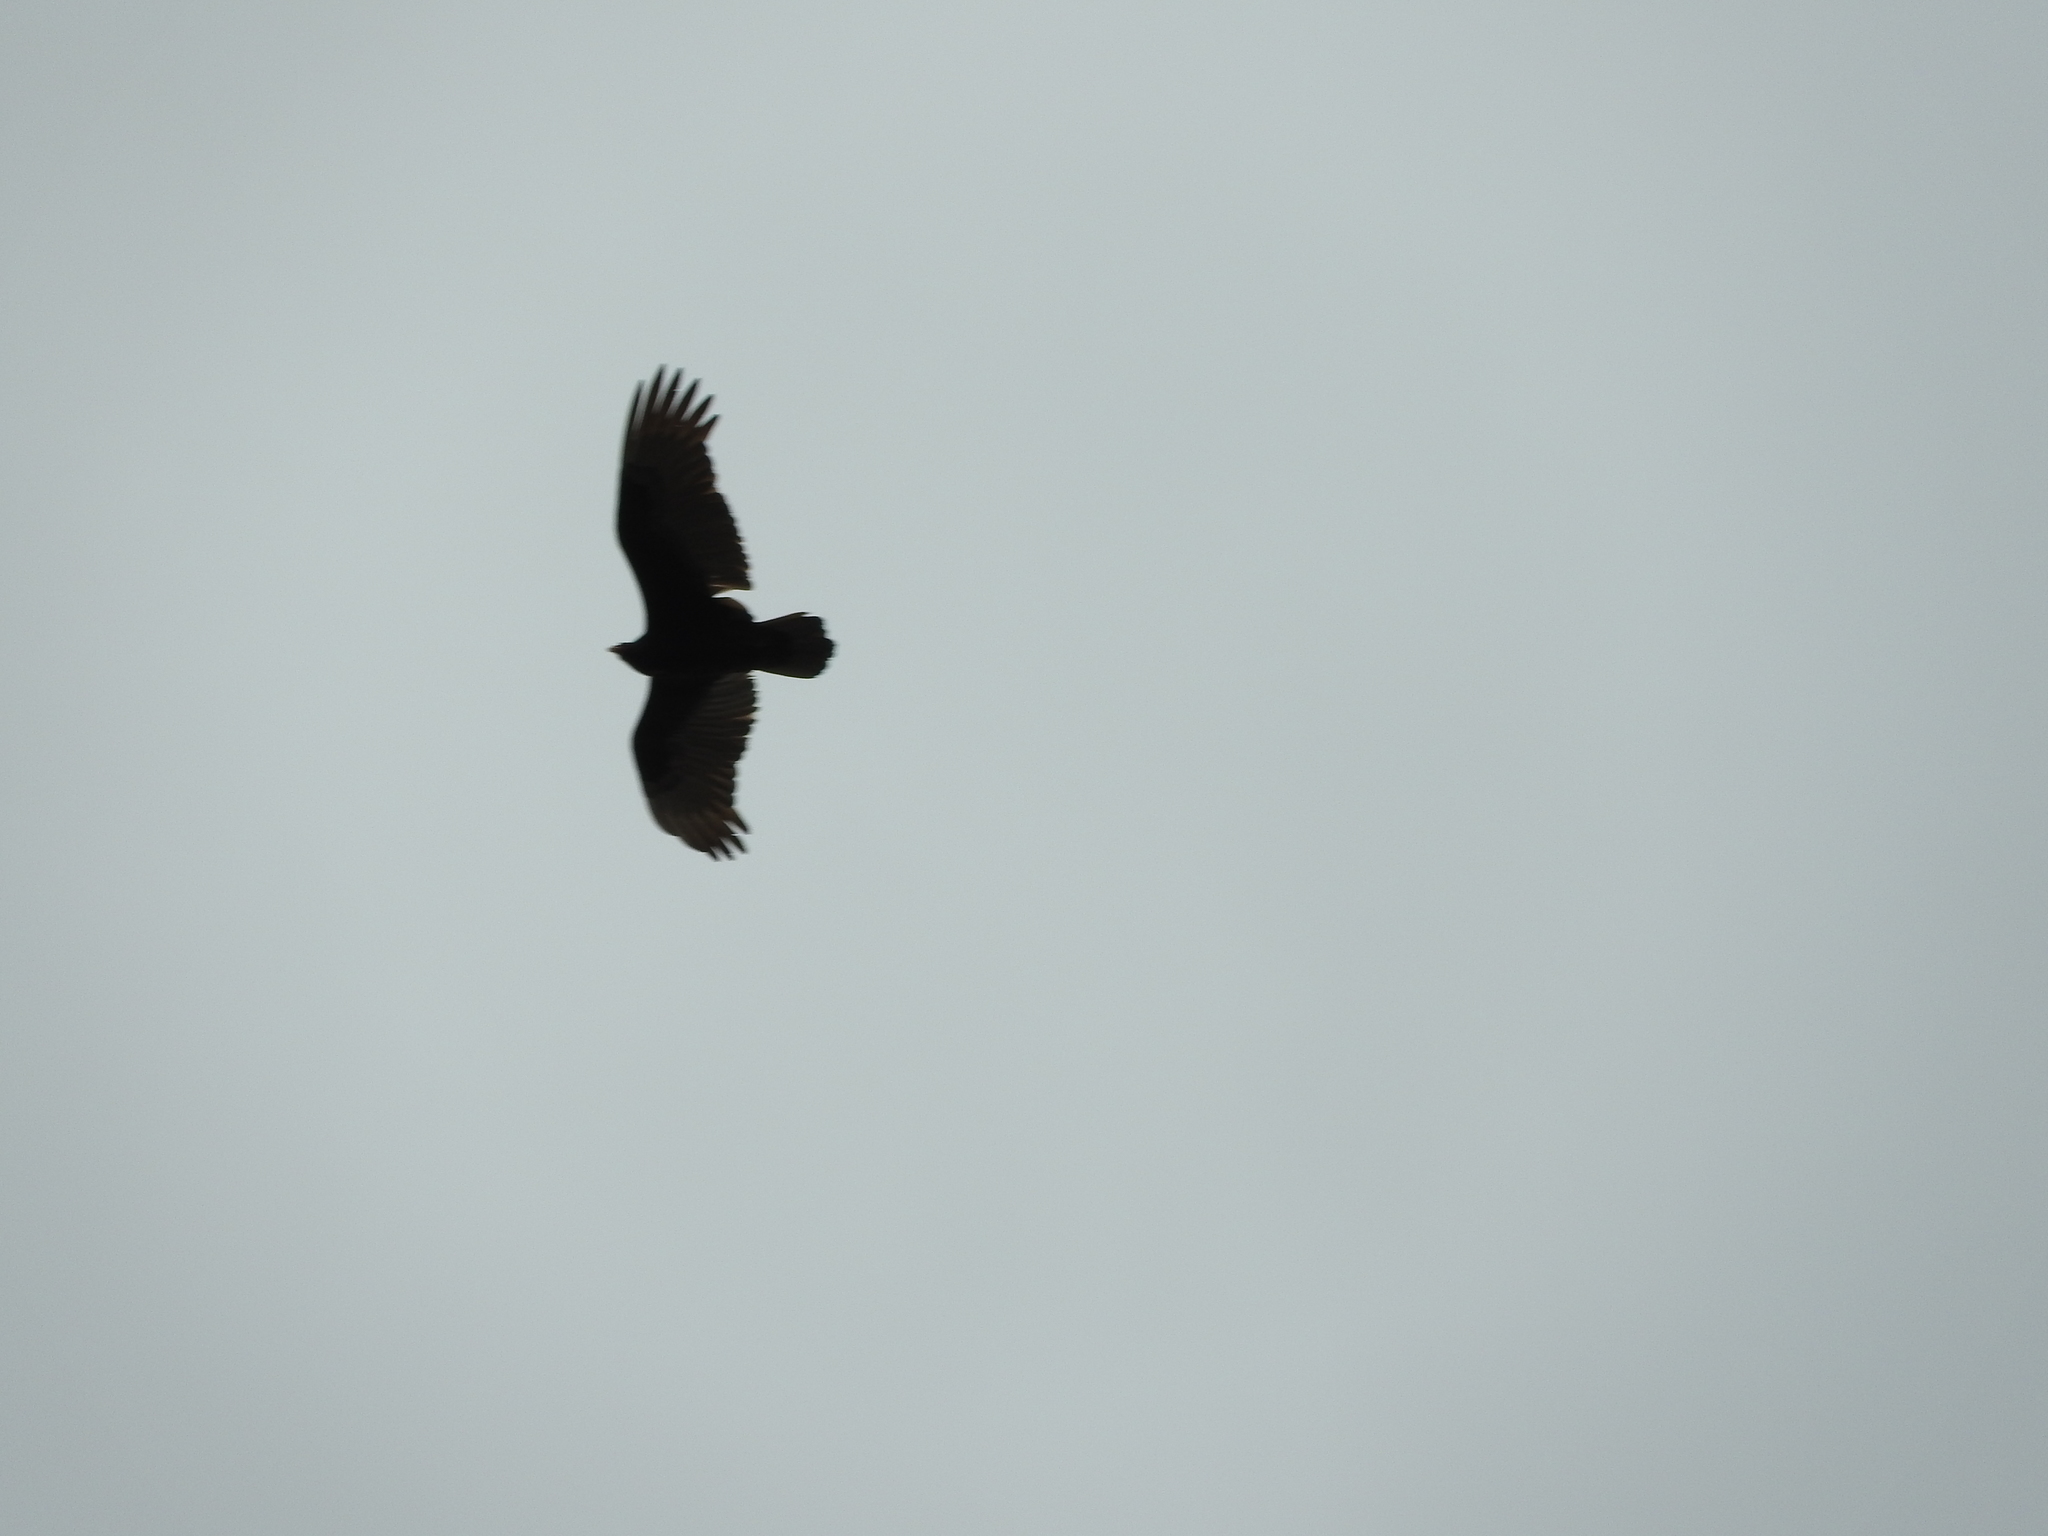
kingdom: Animalia
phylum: Chordata
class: Aves
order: Accipitriformes
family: Cathartidae
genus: Cathartes
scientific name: Cathartes aura
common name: Turkey vulture
